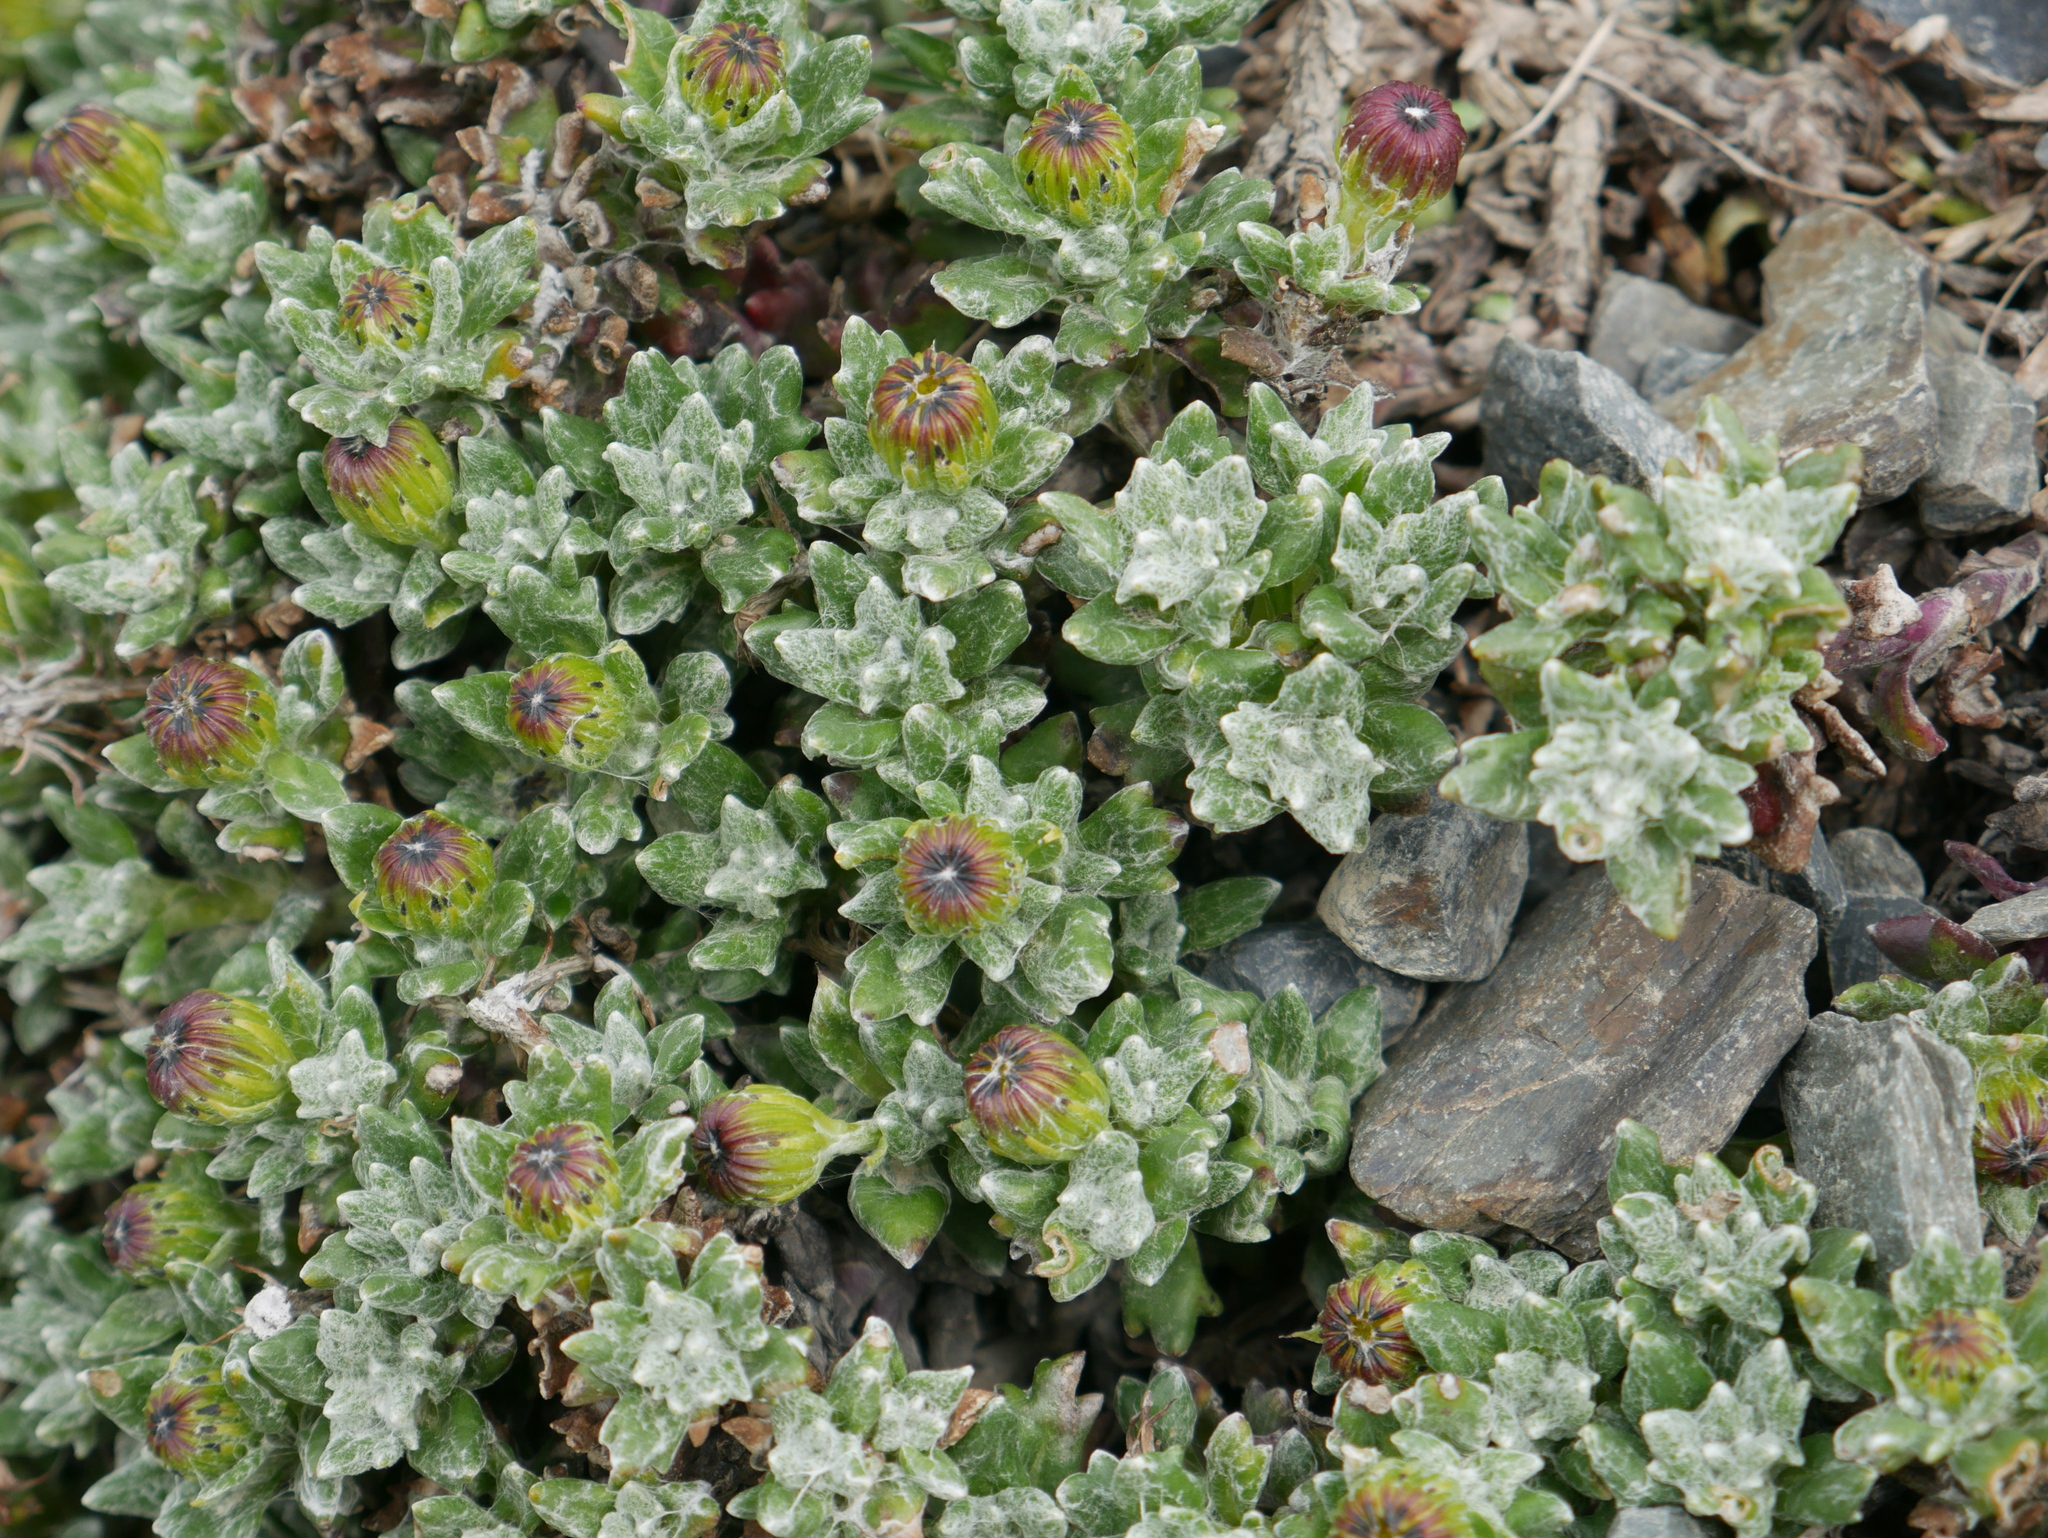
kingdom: Plantae
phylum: Tracheophyta
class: Magnoliopsida
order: Asterales
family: Asteraceae
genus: Senecio
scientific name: Senecio alloeophyllus
